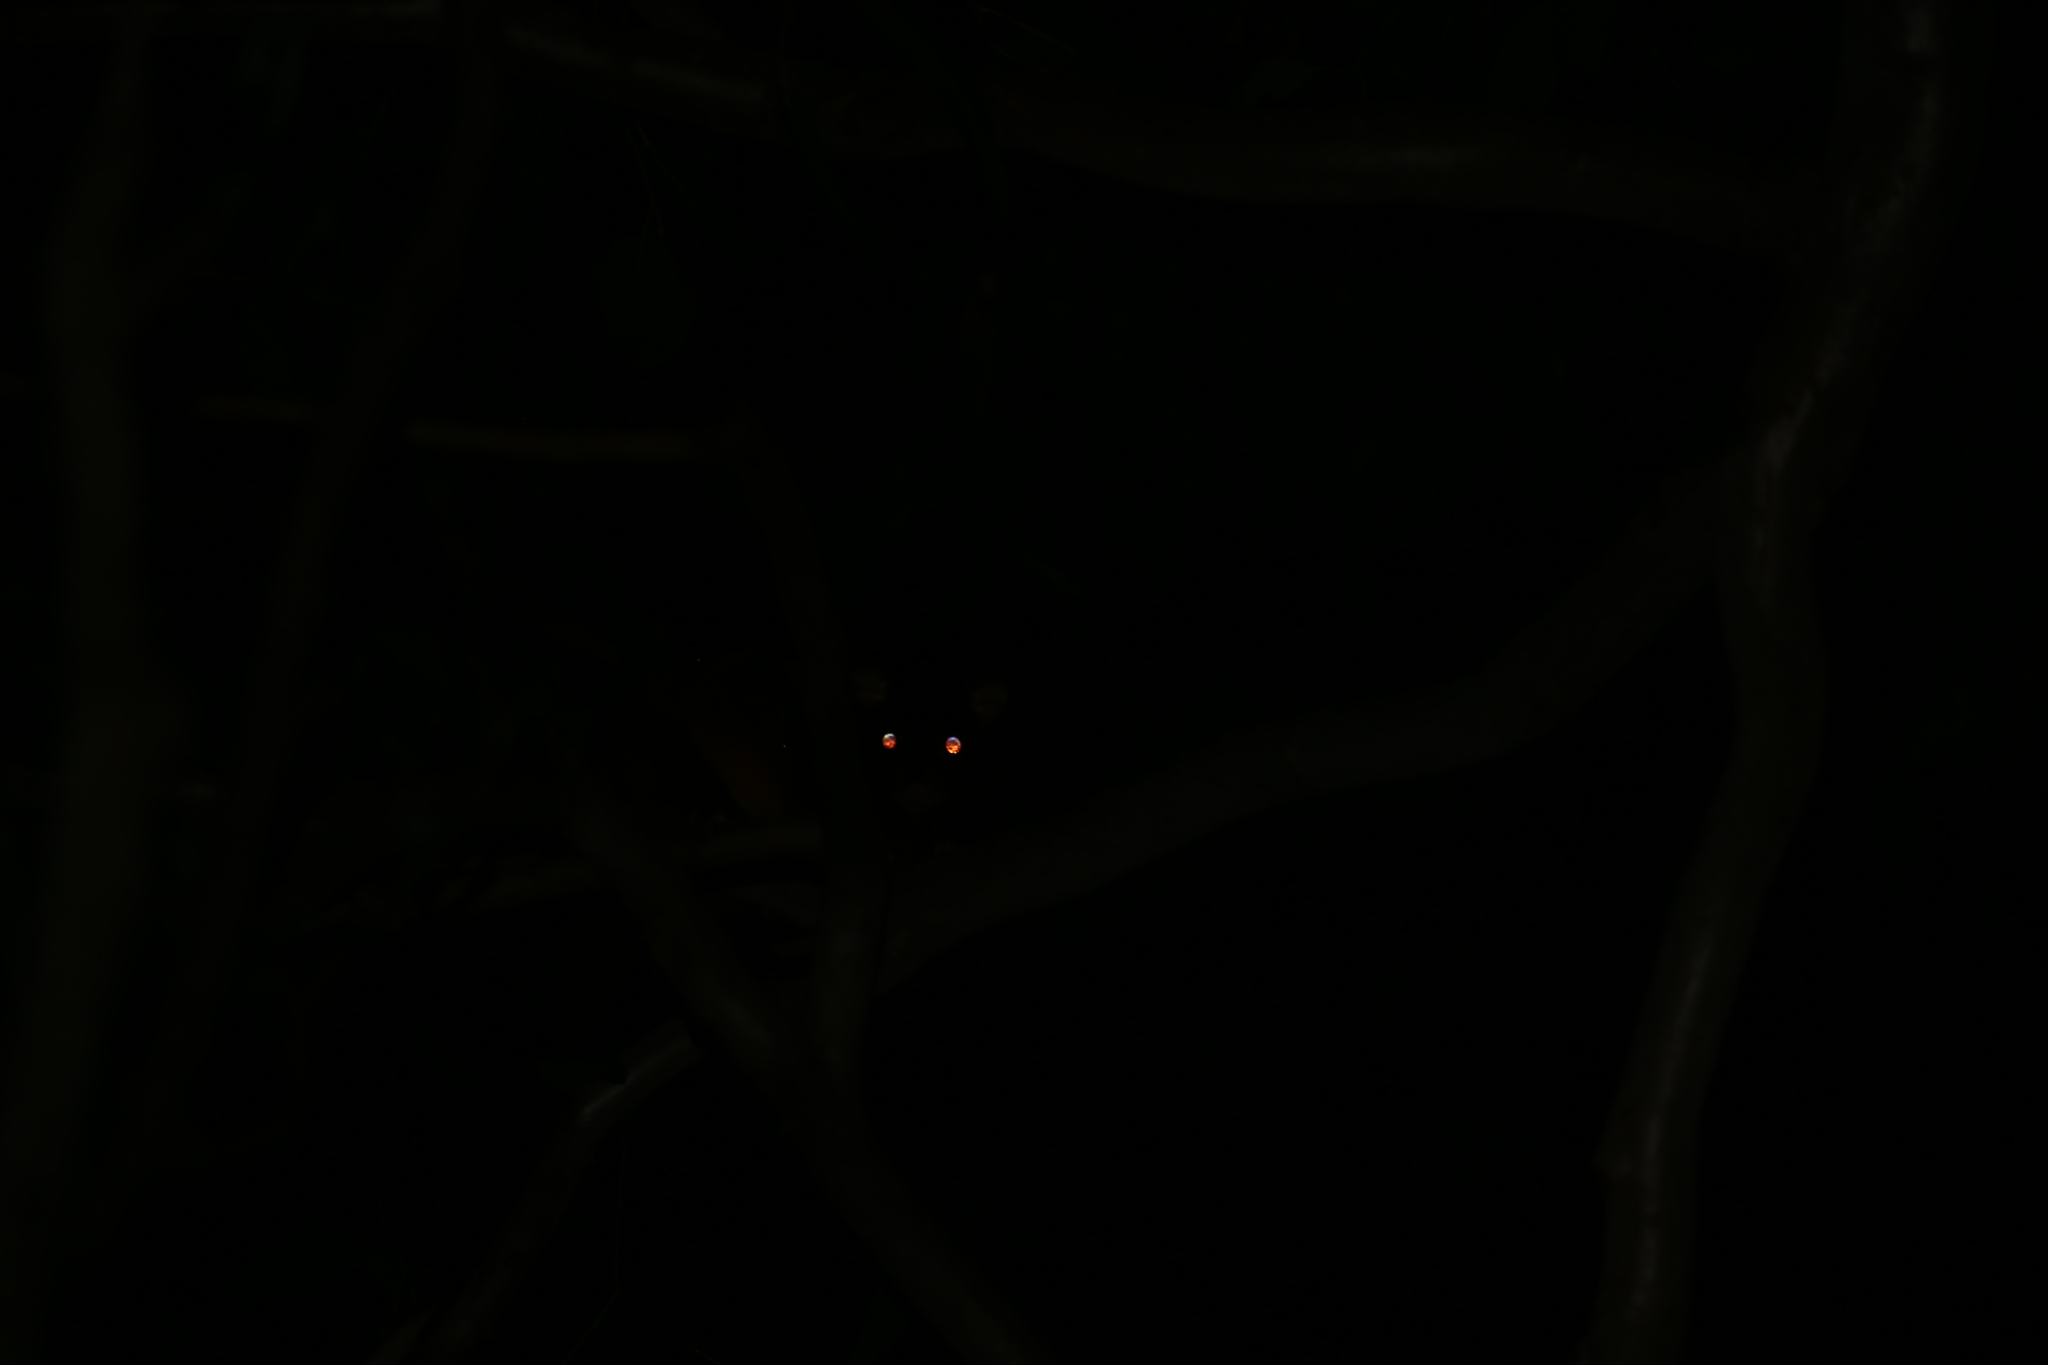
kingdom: Animalia
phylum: Chordata
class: Mammalia
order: Diprotodontia
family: Pseudocheiridae
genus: Pseudocheirus
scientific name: Pseudocheirus peregrinus
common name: Common ringtail possum
